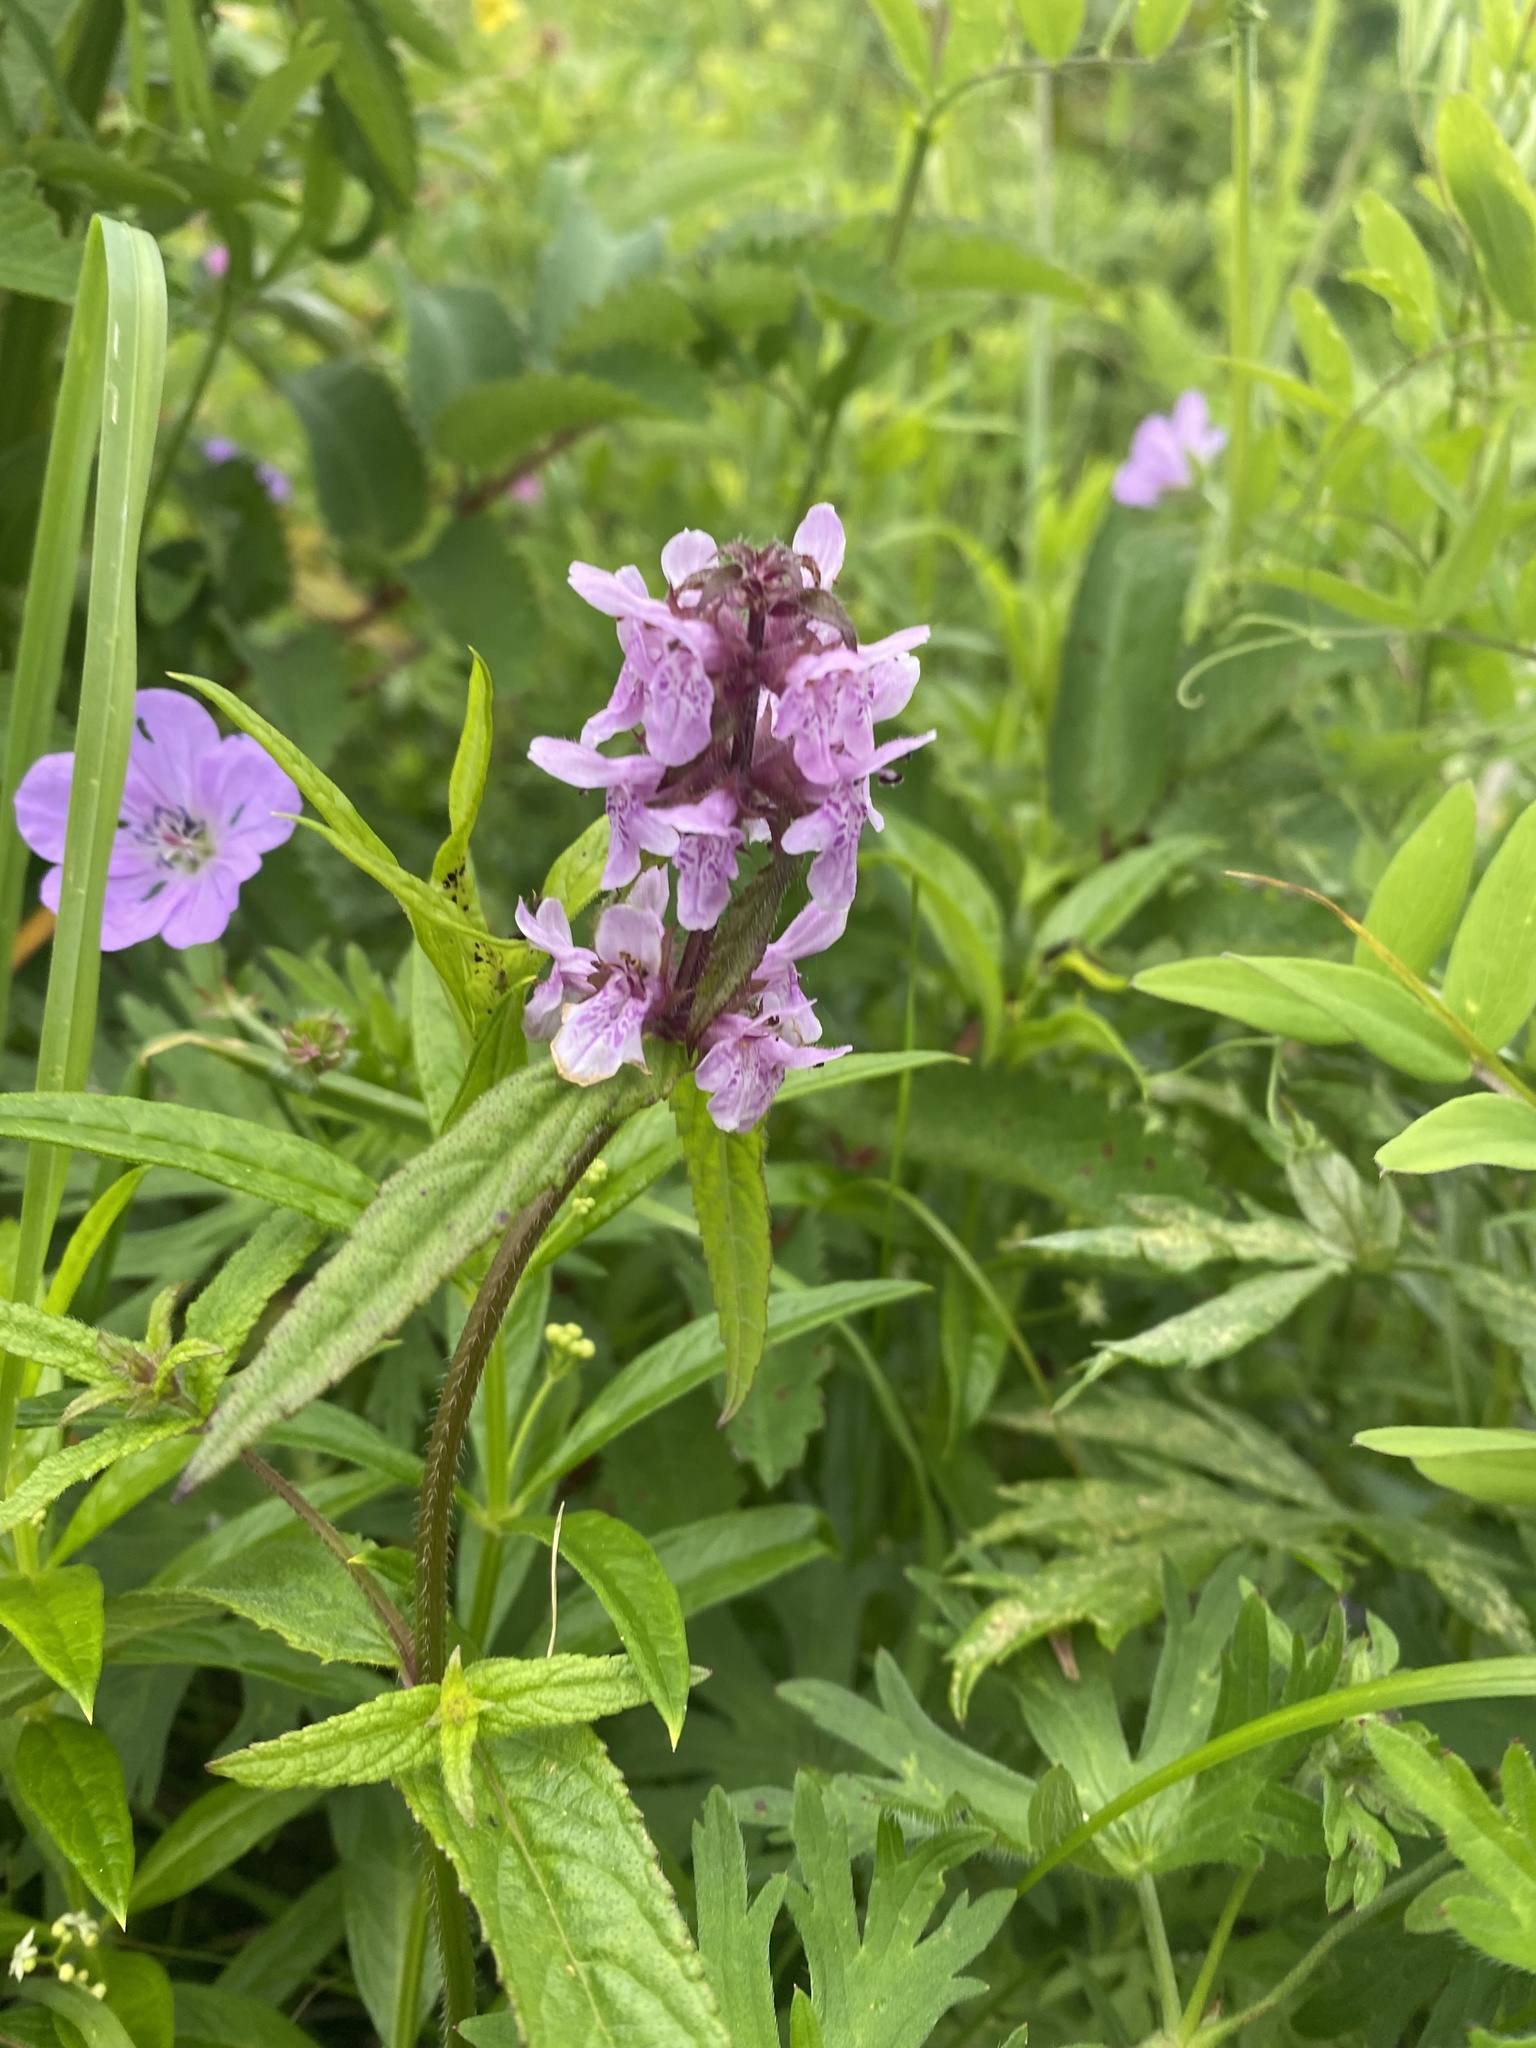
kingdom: Plantae
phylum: Tracheophyta
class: Magnoliopsida
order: Lamiales
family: Lamiaceae
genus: Stachys
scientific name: Stachys aspera
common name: Hyssopleaf hedgenettle
